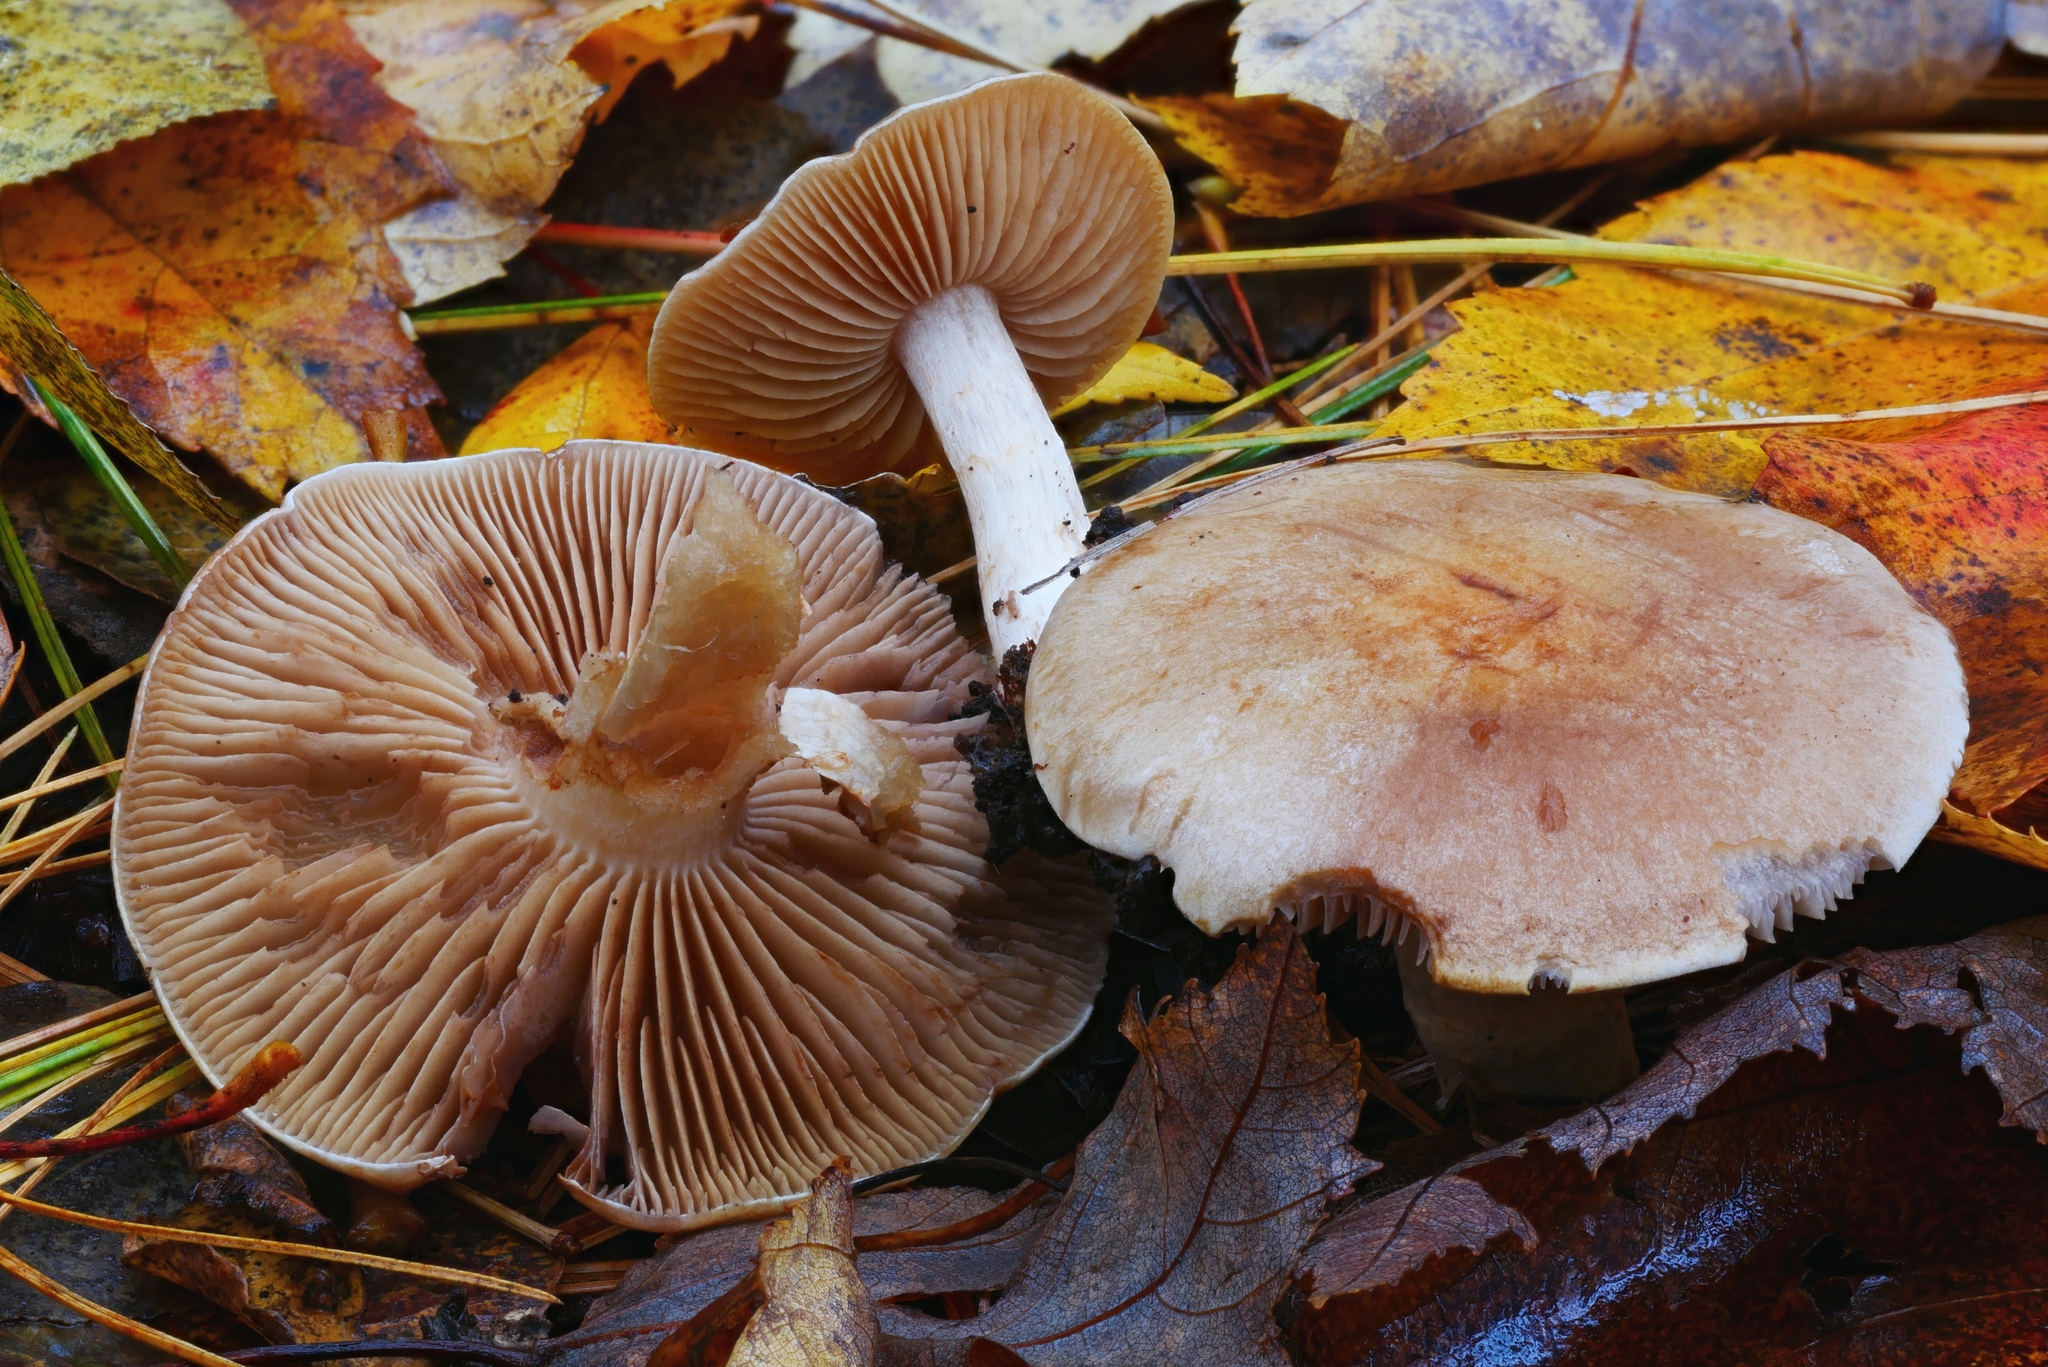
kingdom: Fungi
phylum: Basidiomycota
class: Agaricomycetes
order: Agaricales
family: Cortinariaceae
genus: Cortinarius
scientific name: Cortinarius nettieae
